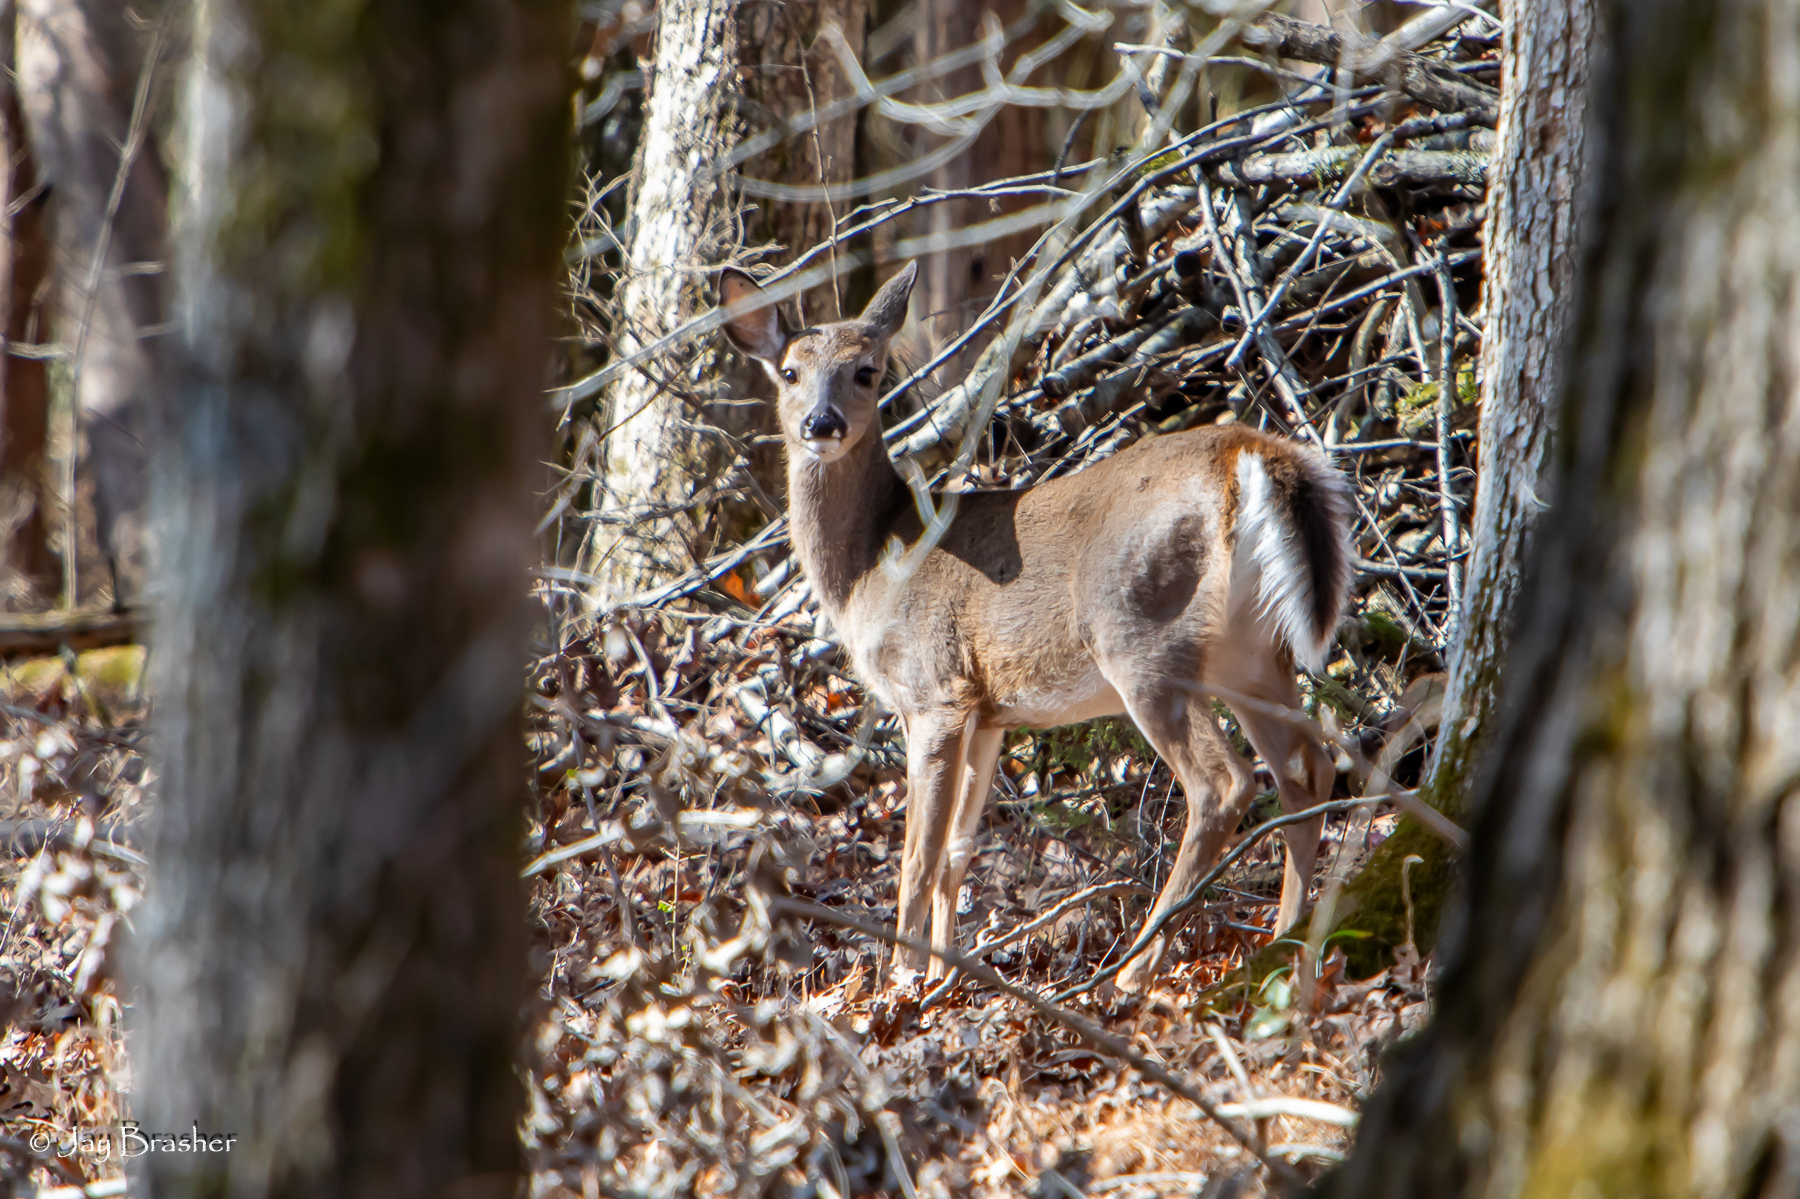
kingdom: Animalia
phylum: Chordata
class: Mammalia
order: Artiodactyla
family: Cervidae
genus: Odocoileus
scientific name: Odocoileus virginianus
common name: White-tailed deer
